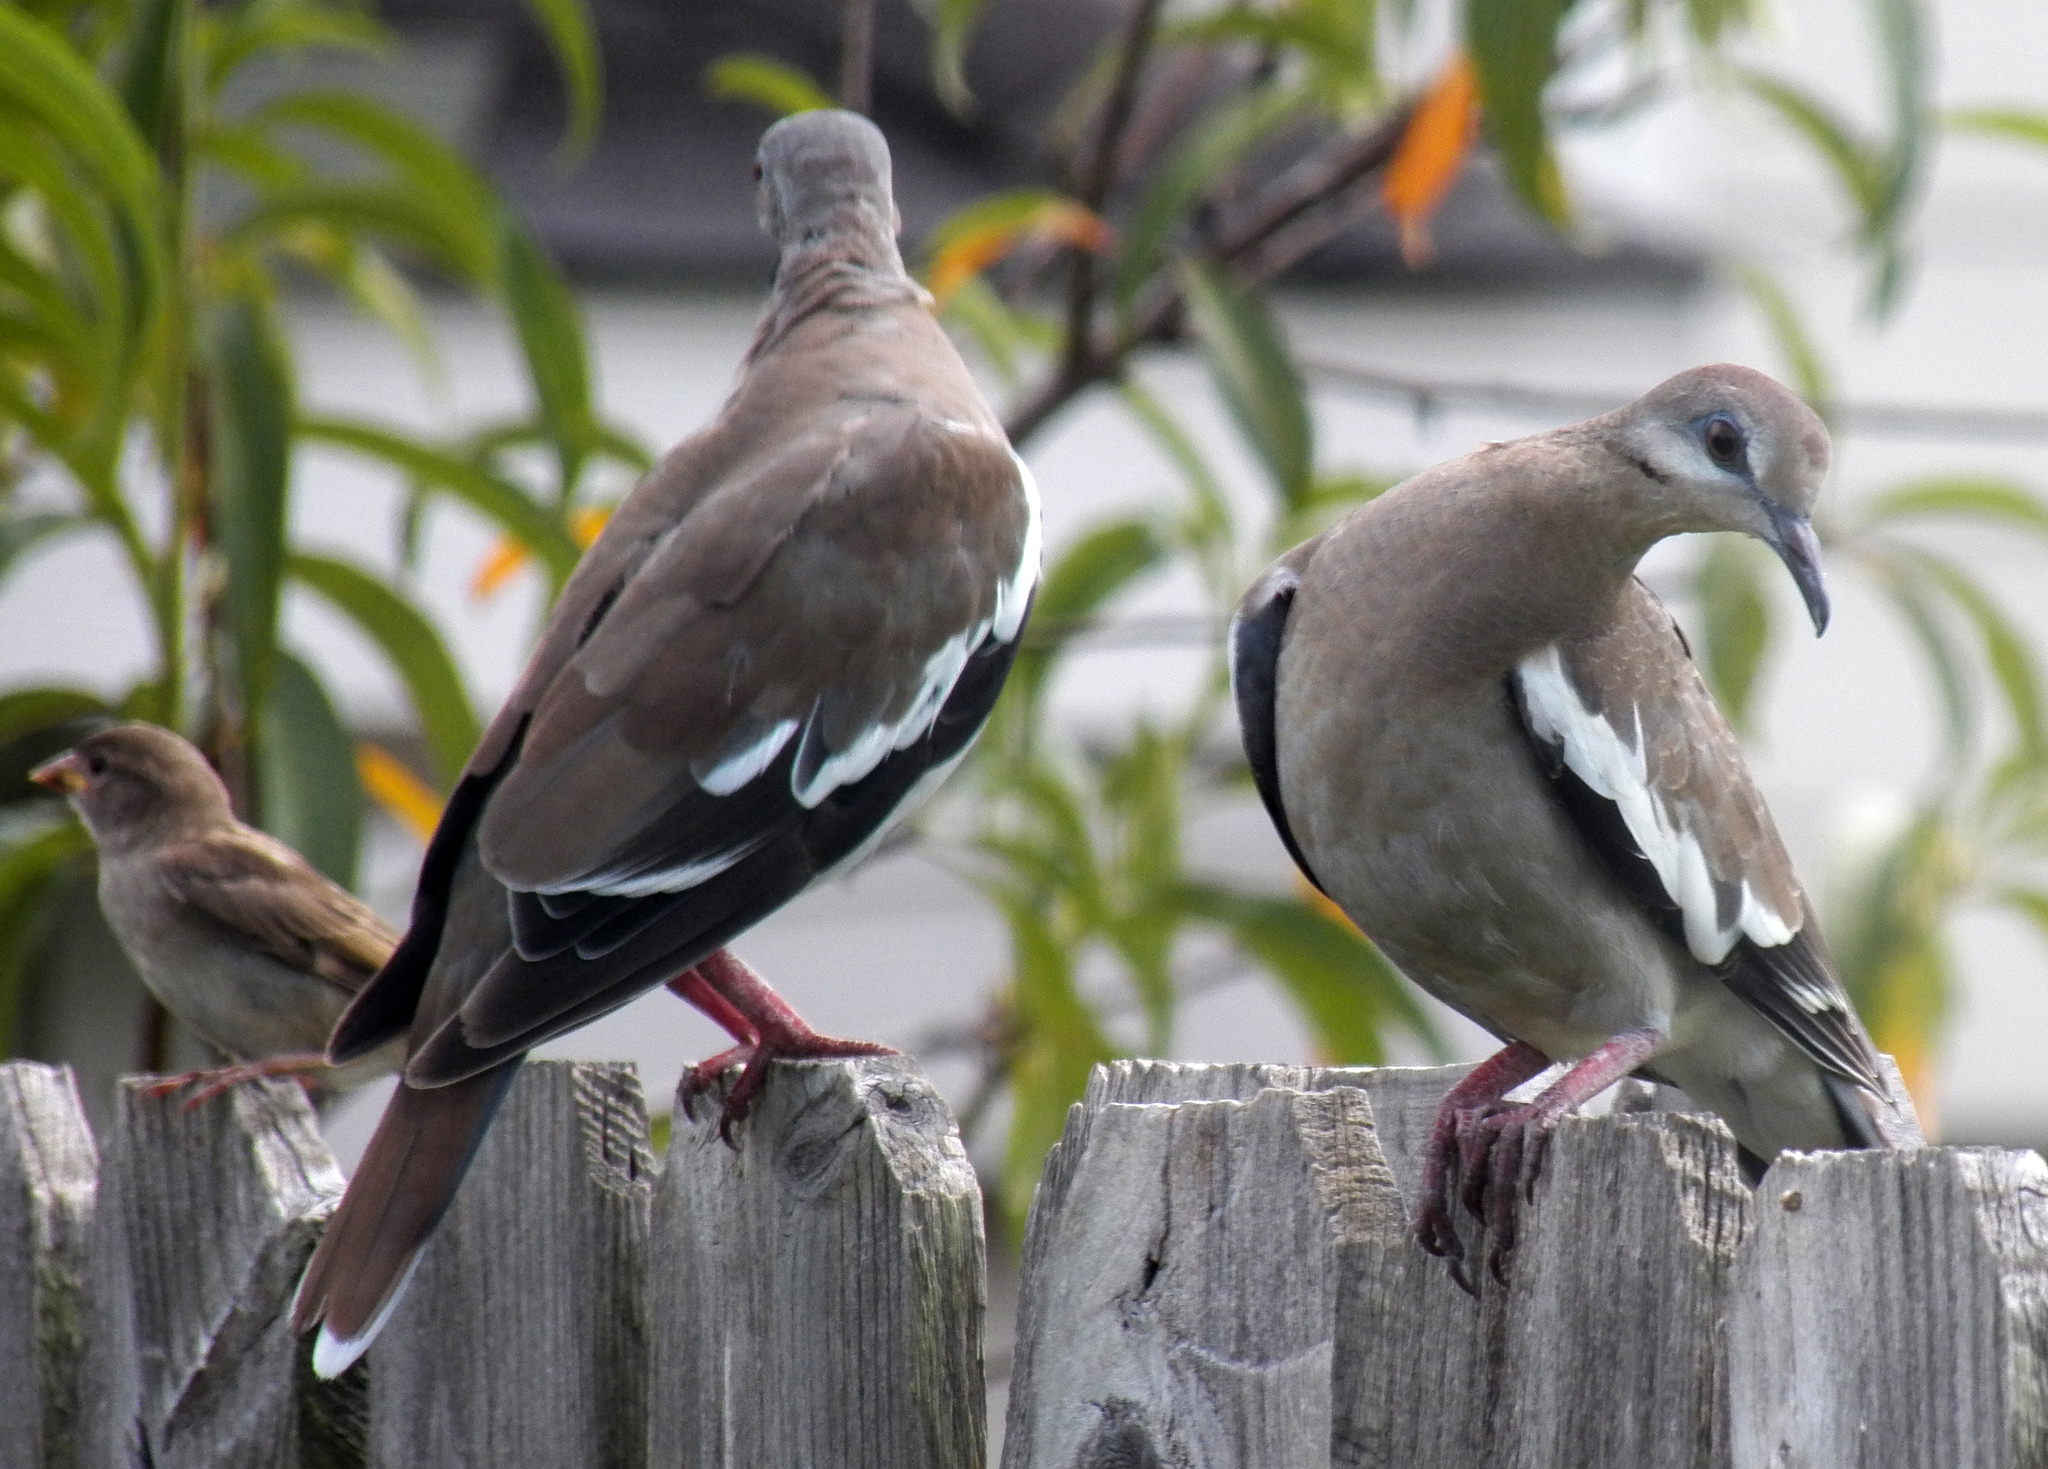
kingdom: Animalia
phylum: Chordata
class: Aves
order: Columbiformes
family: Columbidae
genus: Zenaida
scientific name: Zenaida asiatica
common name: White-winged dove
